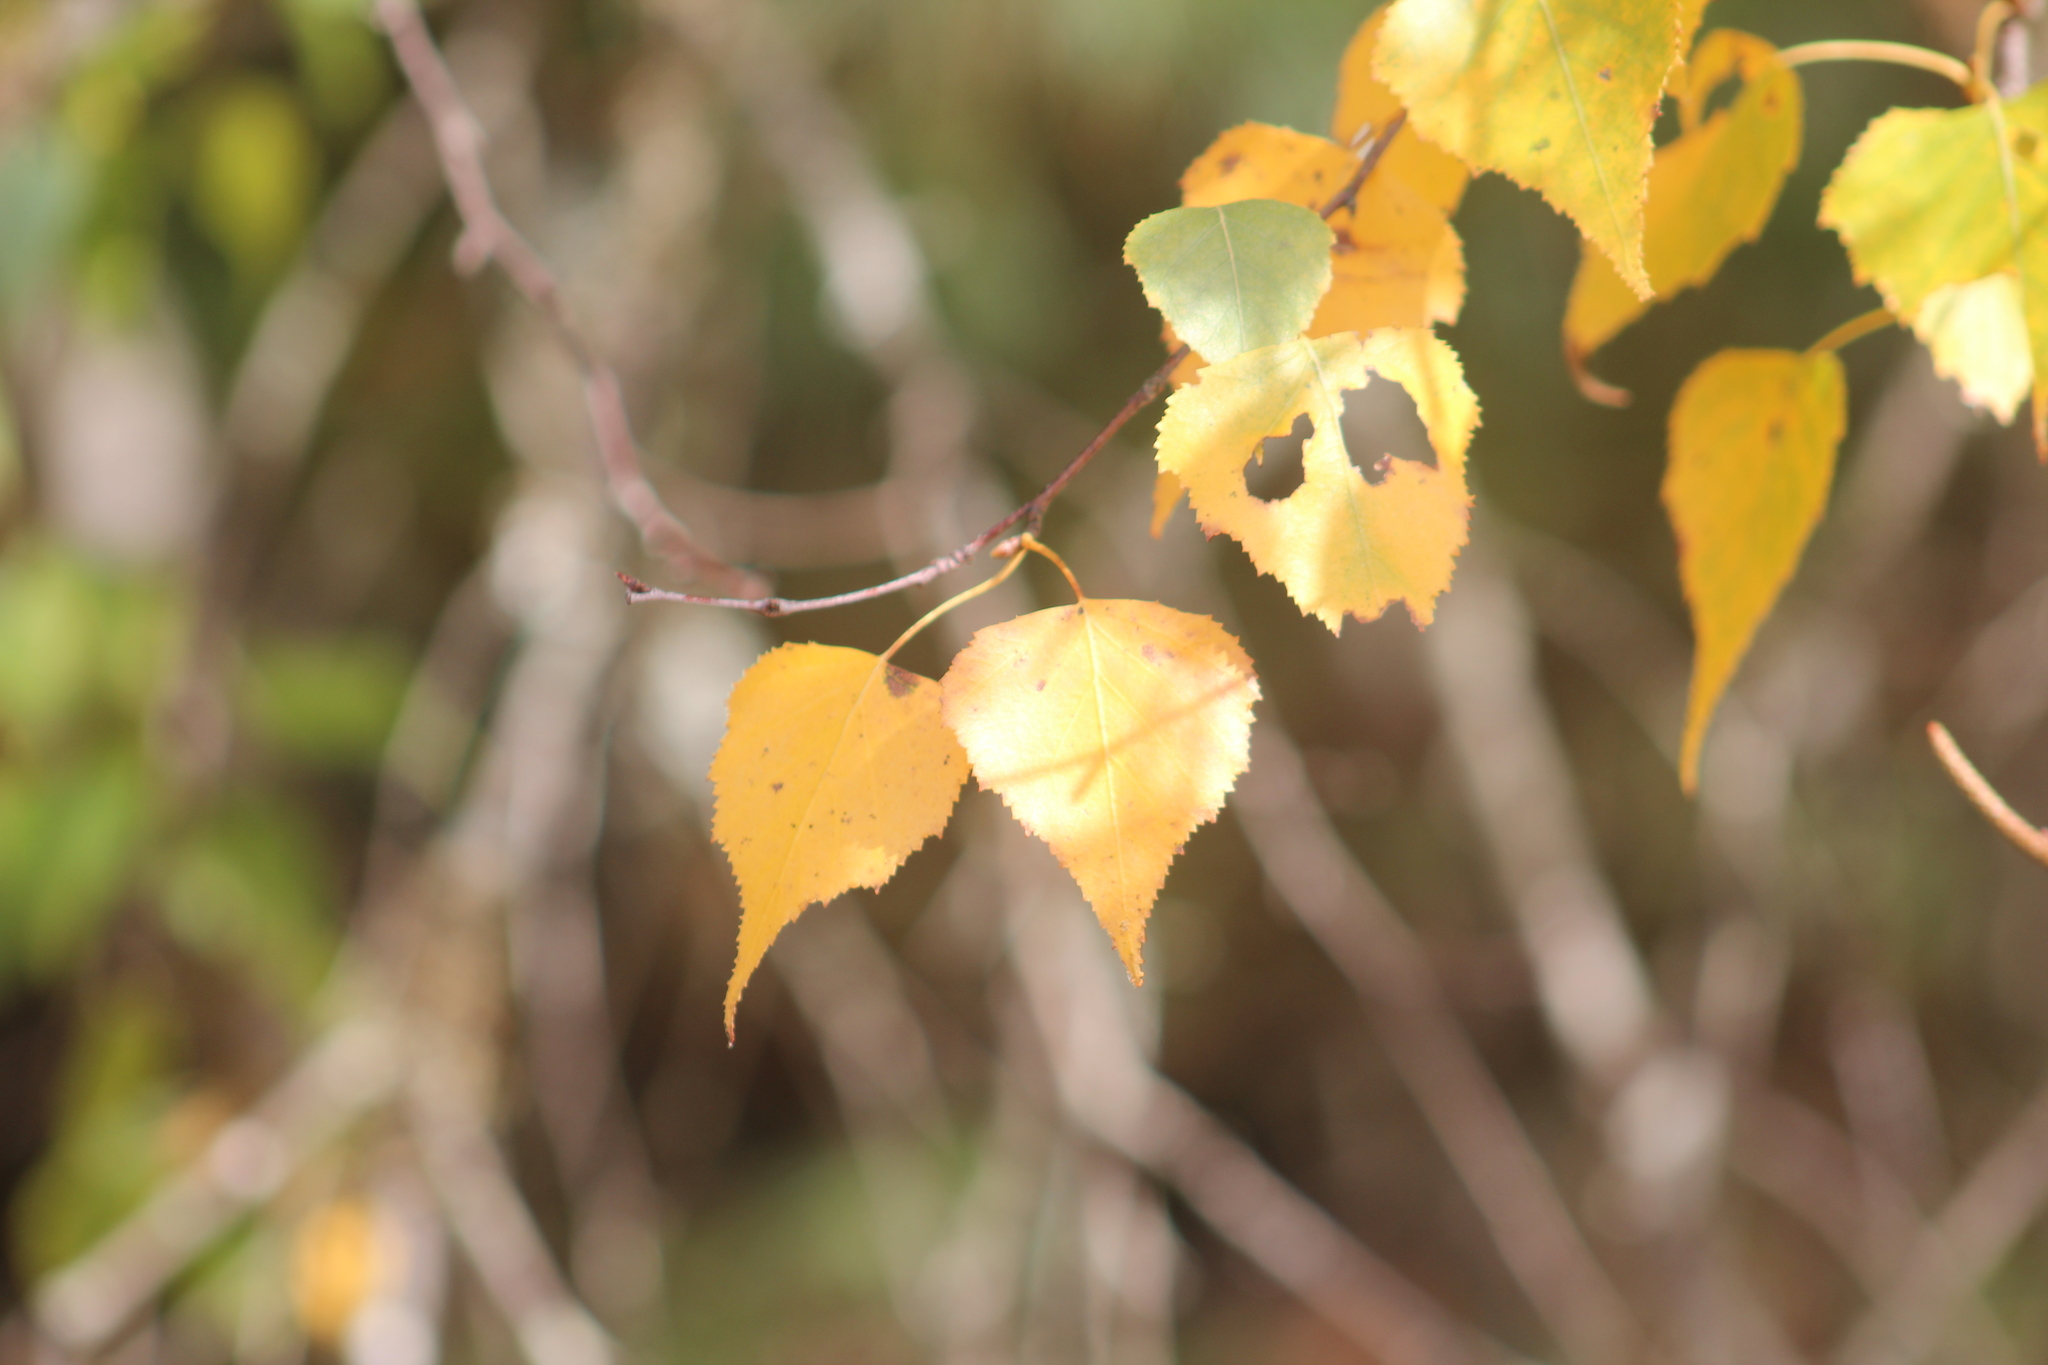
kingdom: Plantae
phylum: Tracheophyta
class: Magnoliopsida
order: Fagales
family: Betulaceae
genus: Betula
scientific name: Betula populifolia
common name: Fire birch
